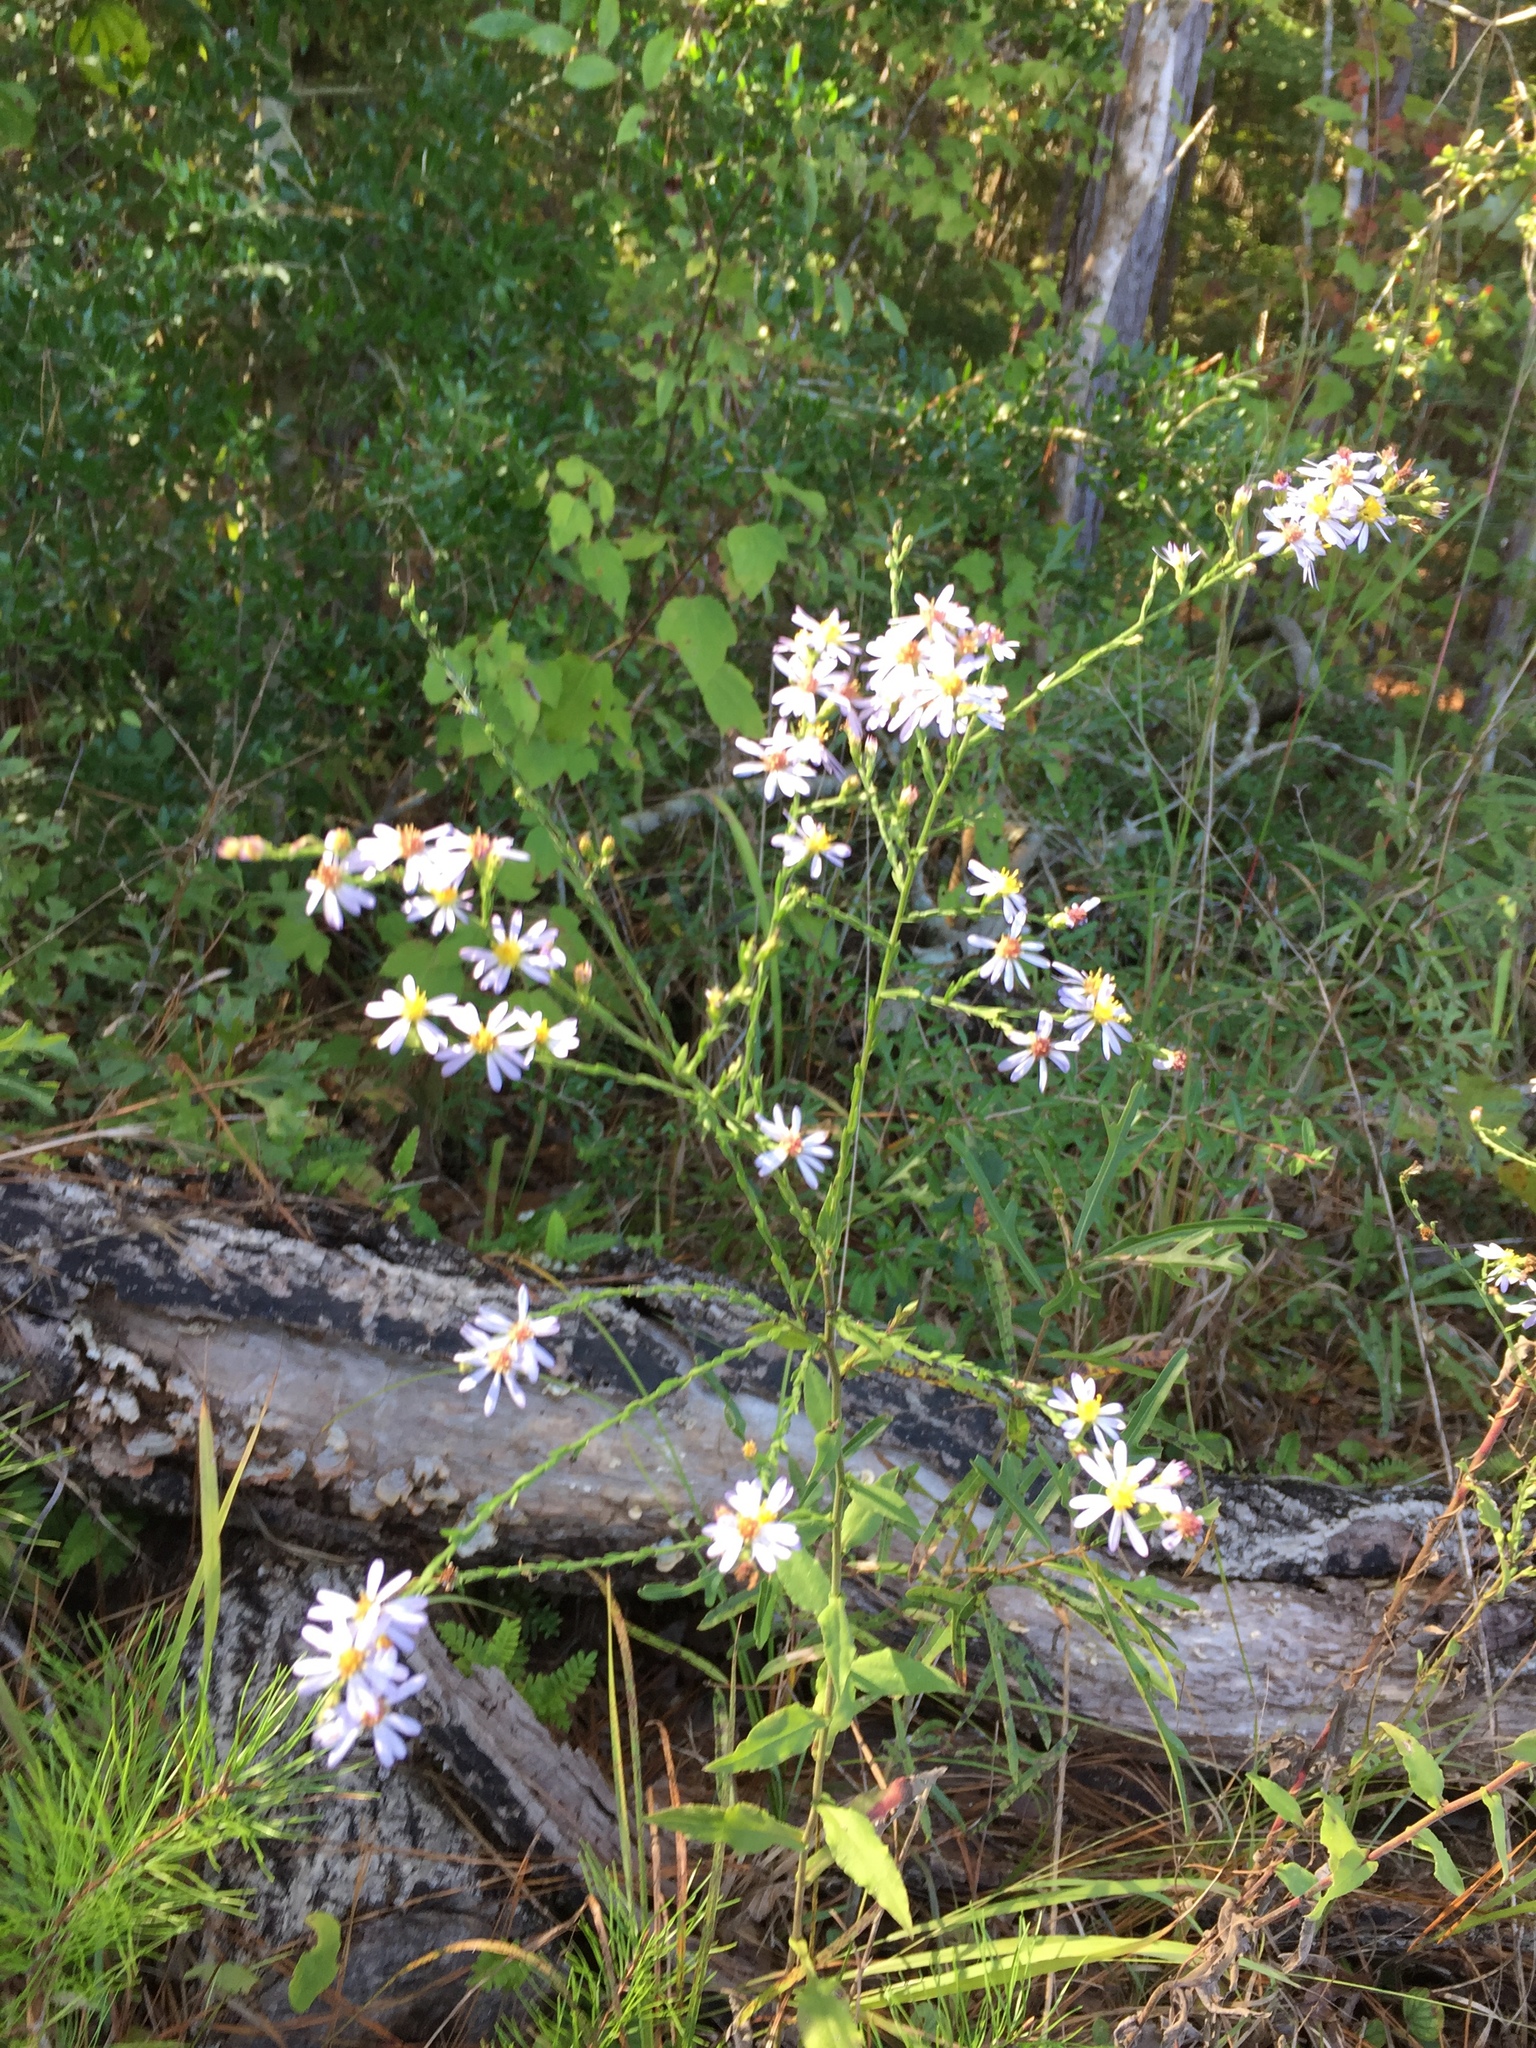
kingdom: Plantae
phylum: Tracheophyta
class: Magnoliopsida
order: Asterales
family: Asteraceae
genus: Symphyotrichum
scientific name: Symphyotrichum undulatum
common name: Clasping heart-leaf aster
